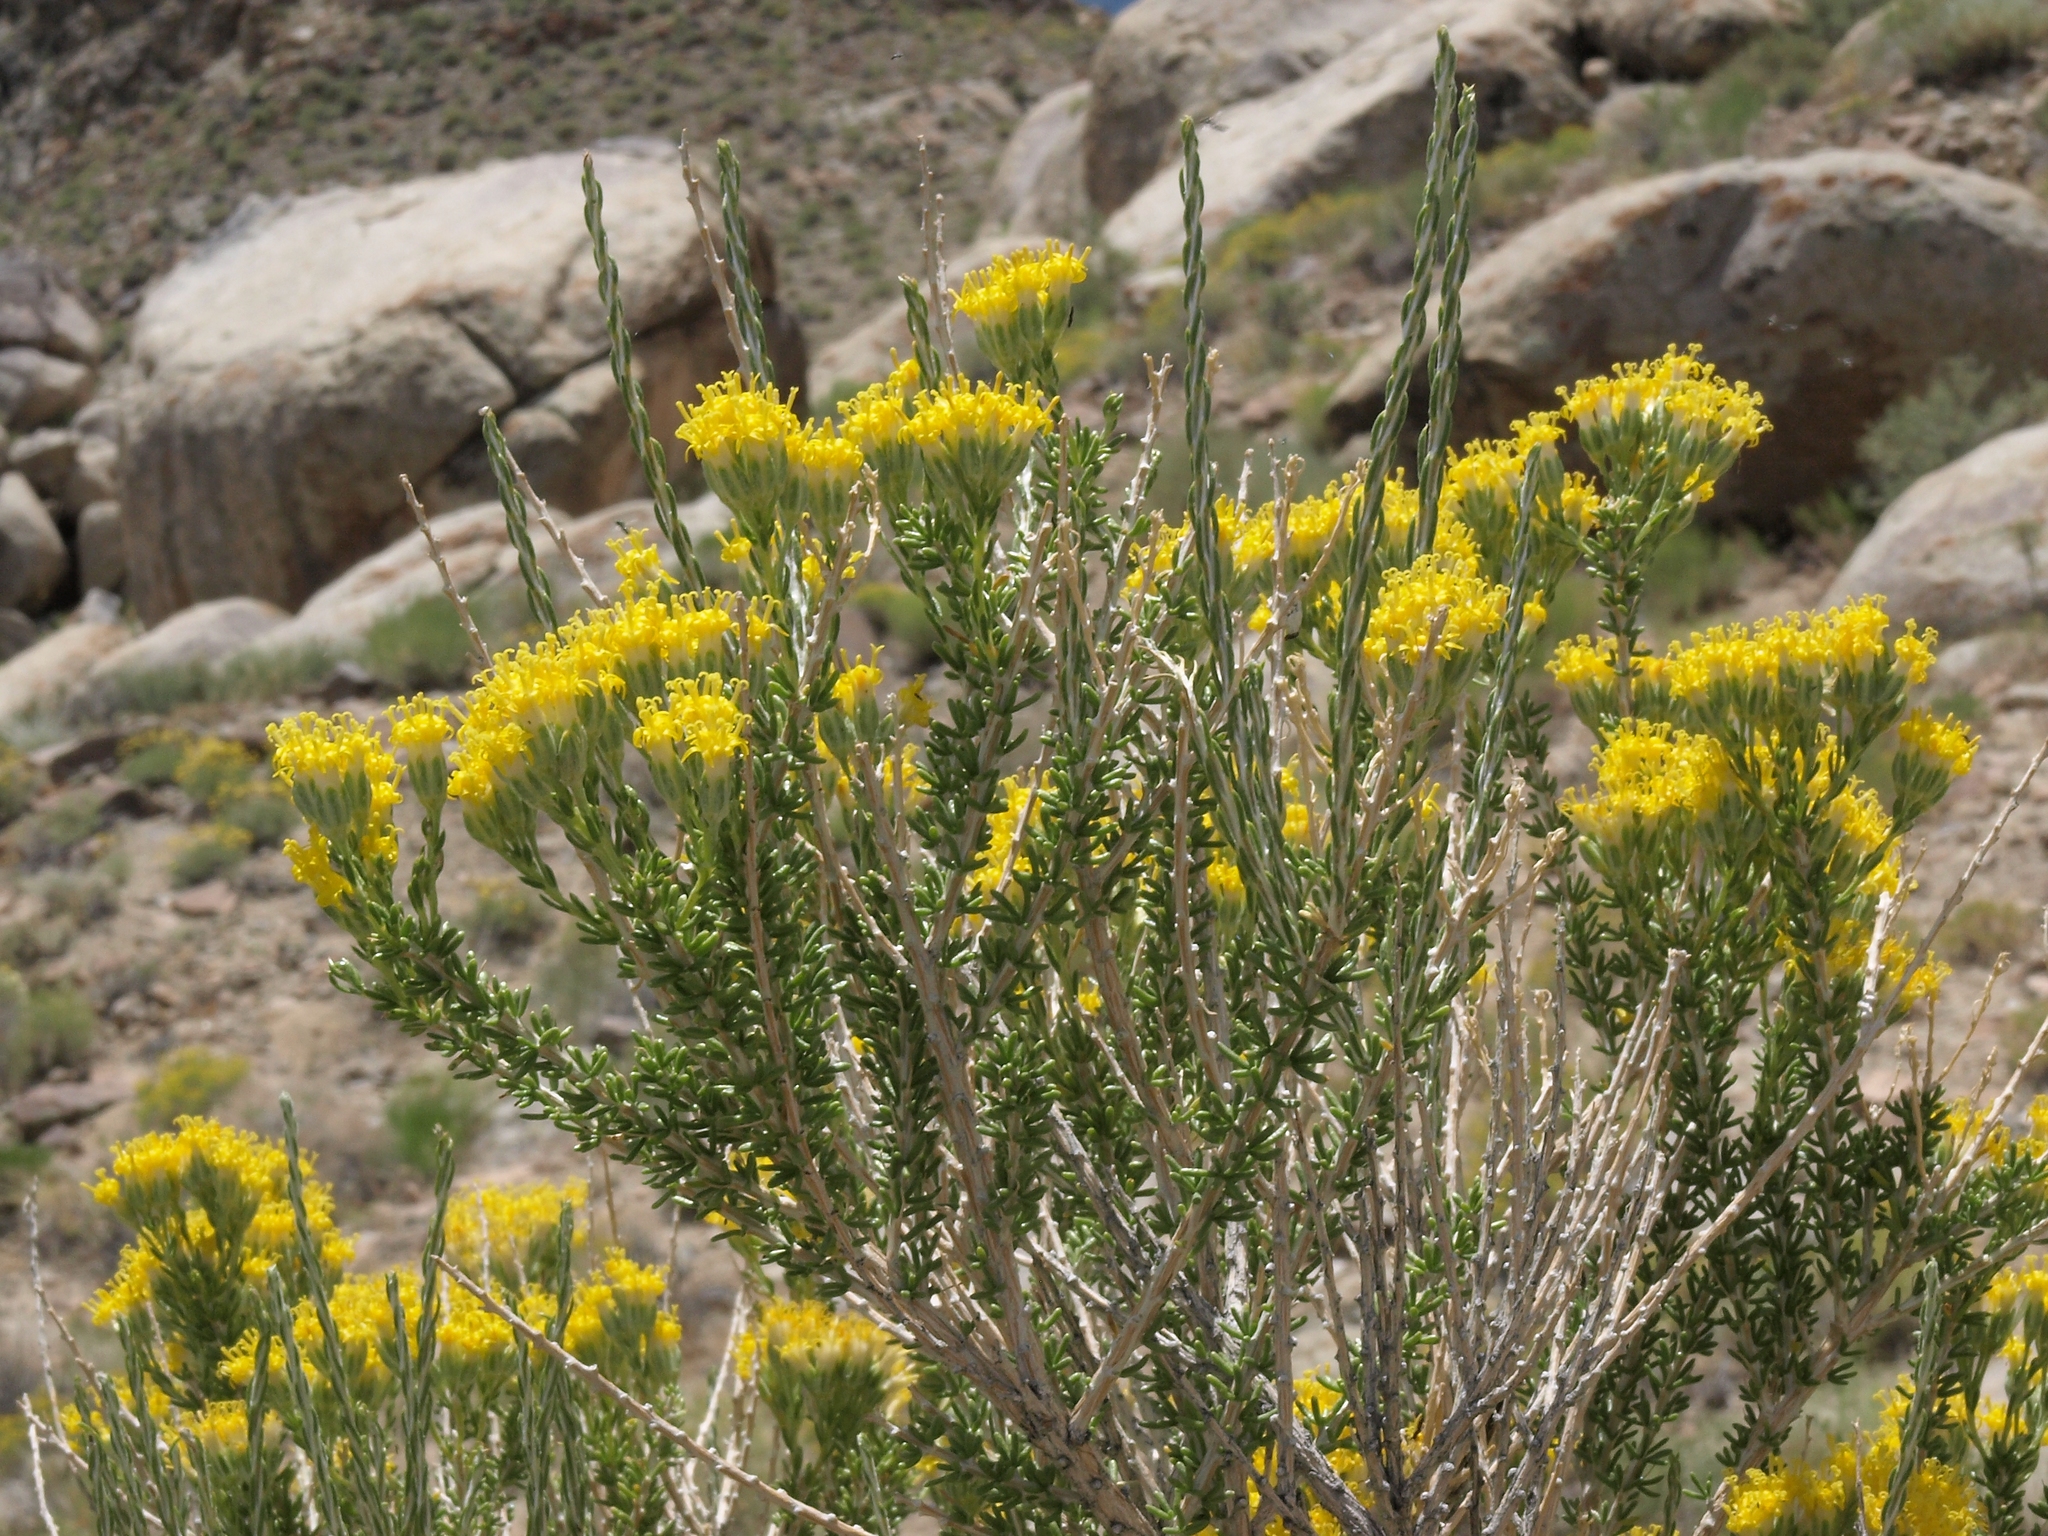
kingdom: Plantae
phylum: Tracheophyta
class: Magnoliopsida
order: Asterales
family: Asteraceae
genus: Tetradymia
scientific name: Tetradymia glabrata
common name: Smooth tetradymia
